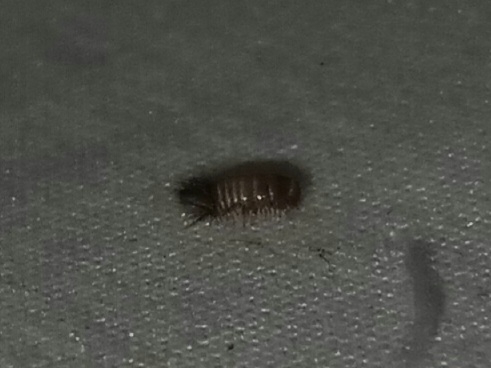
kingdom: Animalia
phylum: Arthropoda
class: Insecta
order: Coleoptera
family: Dermestidae
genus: Anthrenus
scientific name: Anthrenus verbasci
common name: Varied carpet beetle
